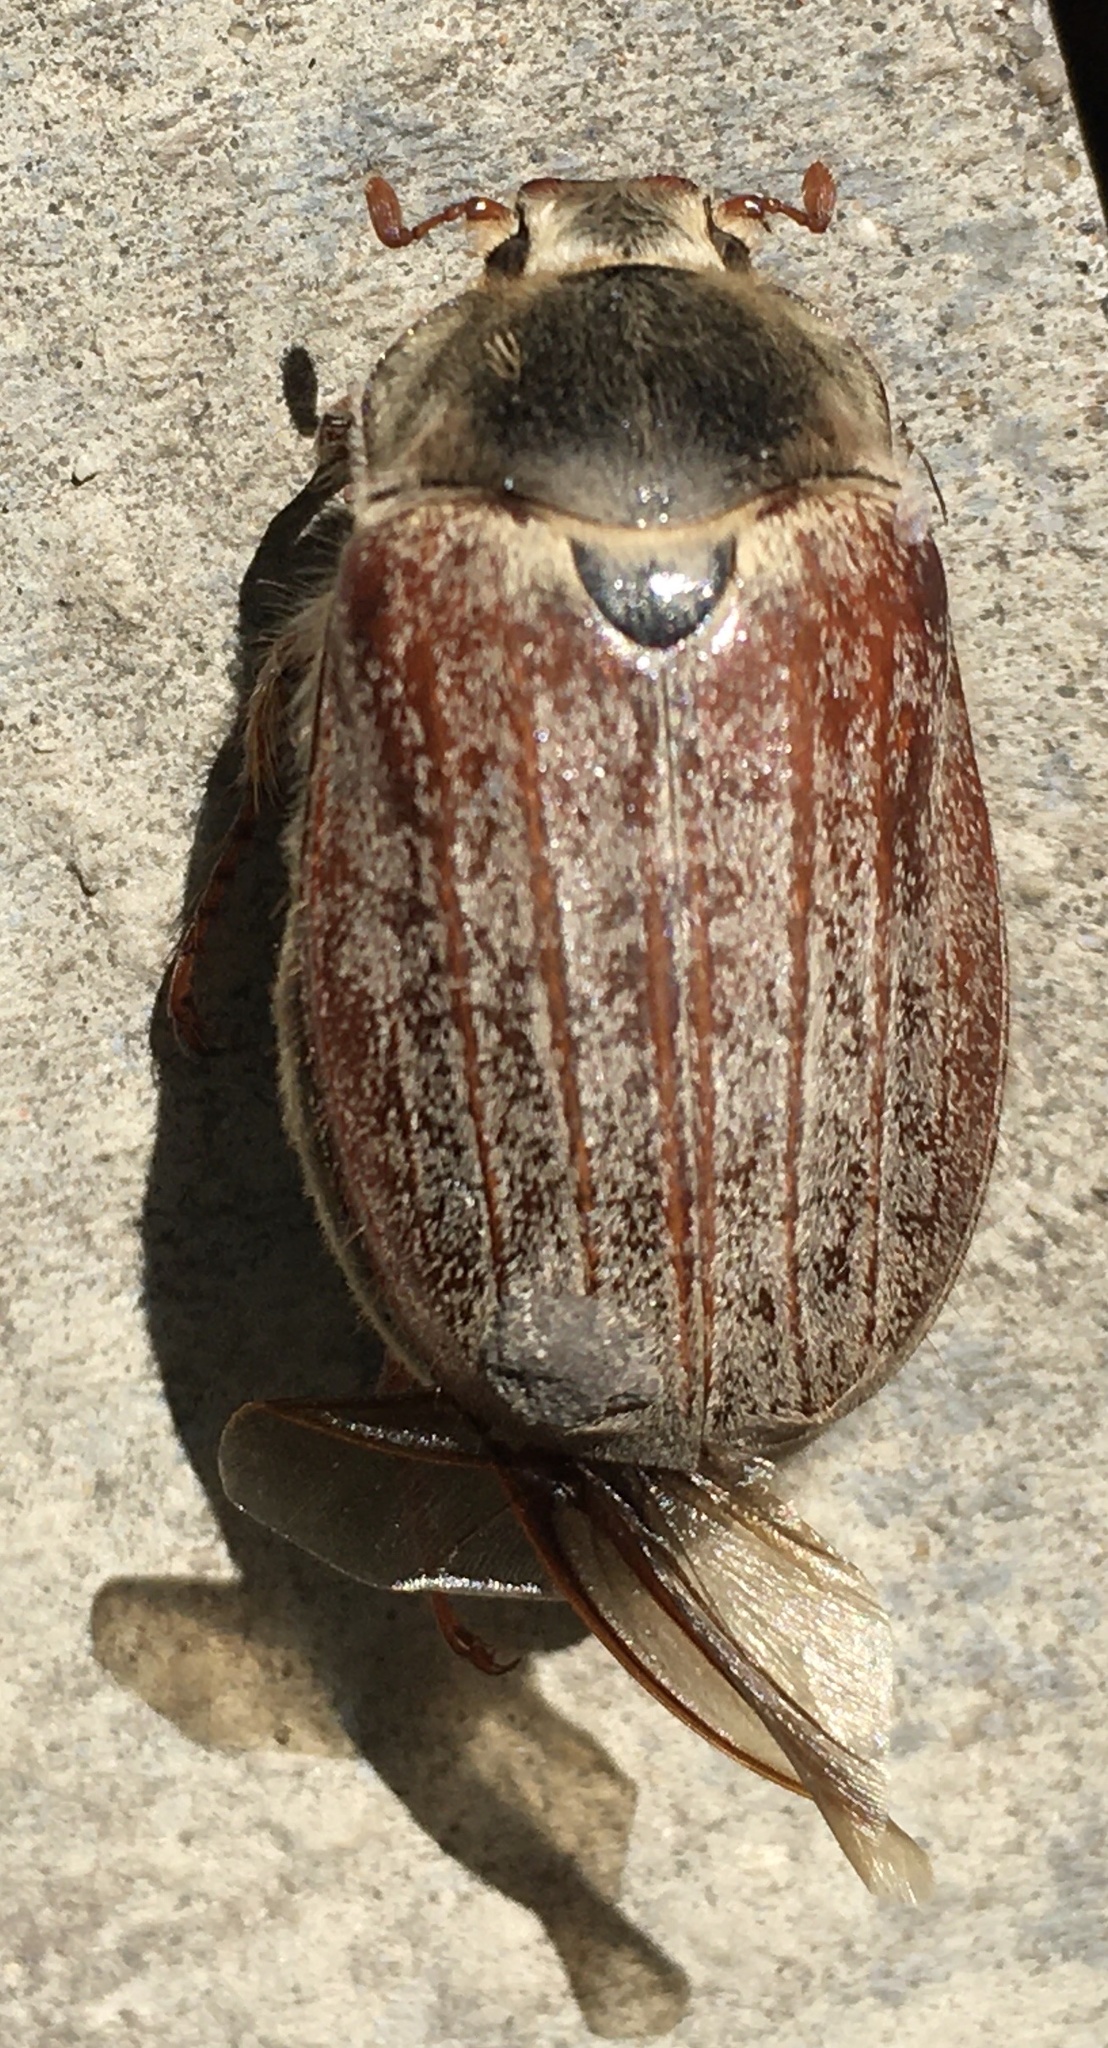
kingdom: Animalia
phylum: Arthropoda
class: Insecta
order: Coleoptera
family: Scarabaeidae
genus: Melolontha
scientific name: Melolontha melolontha
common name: Cockchafer maybeetle
